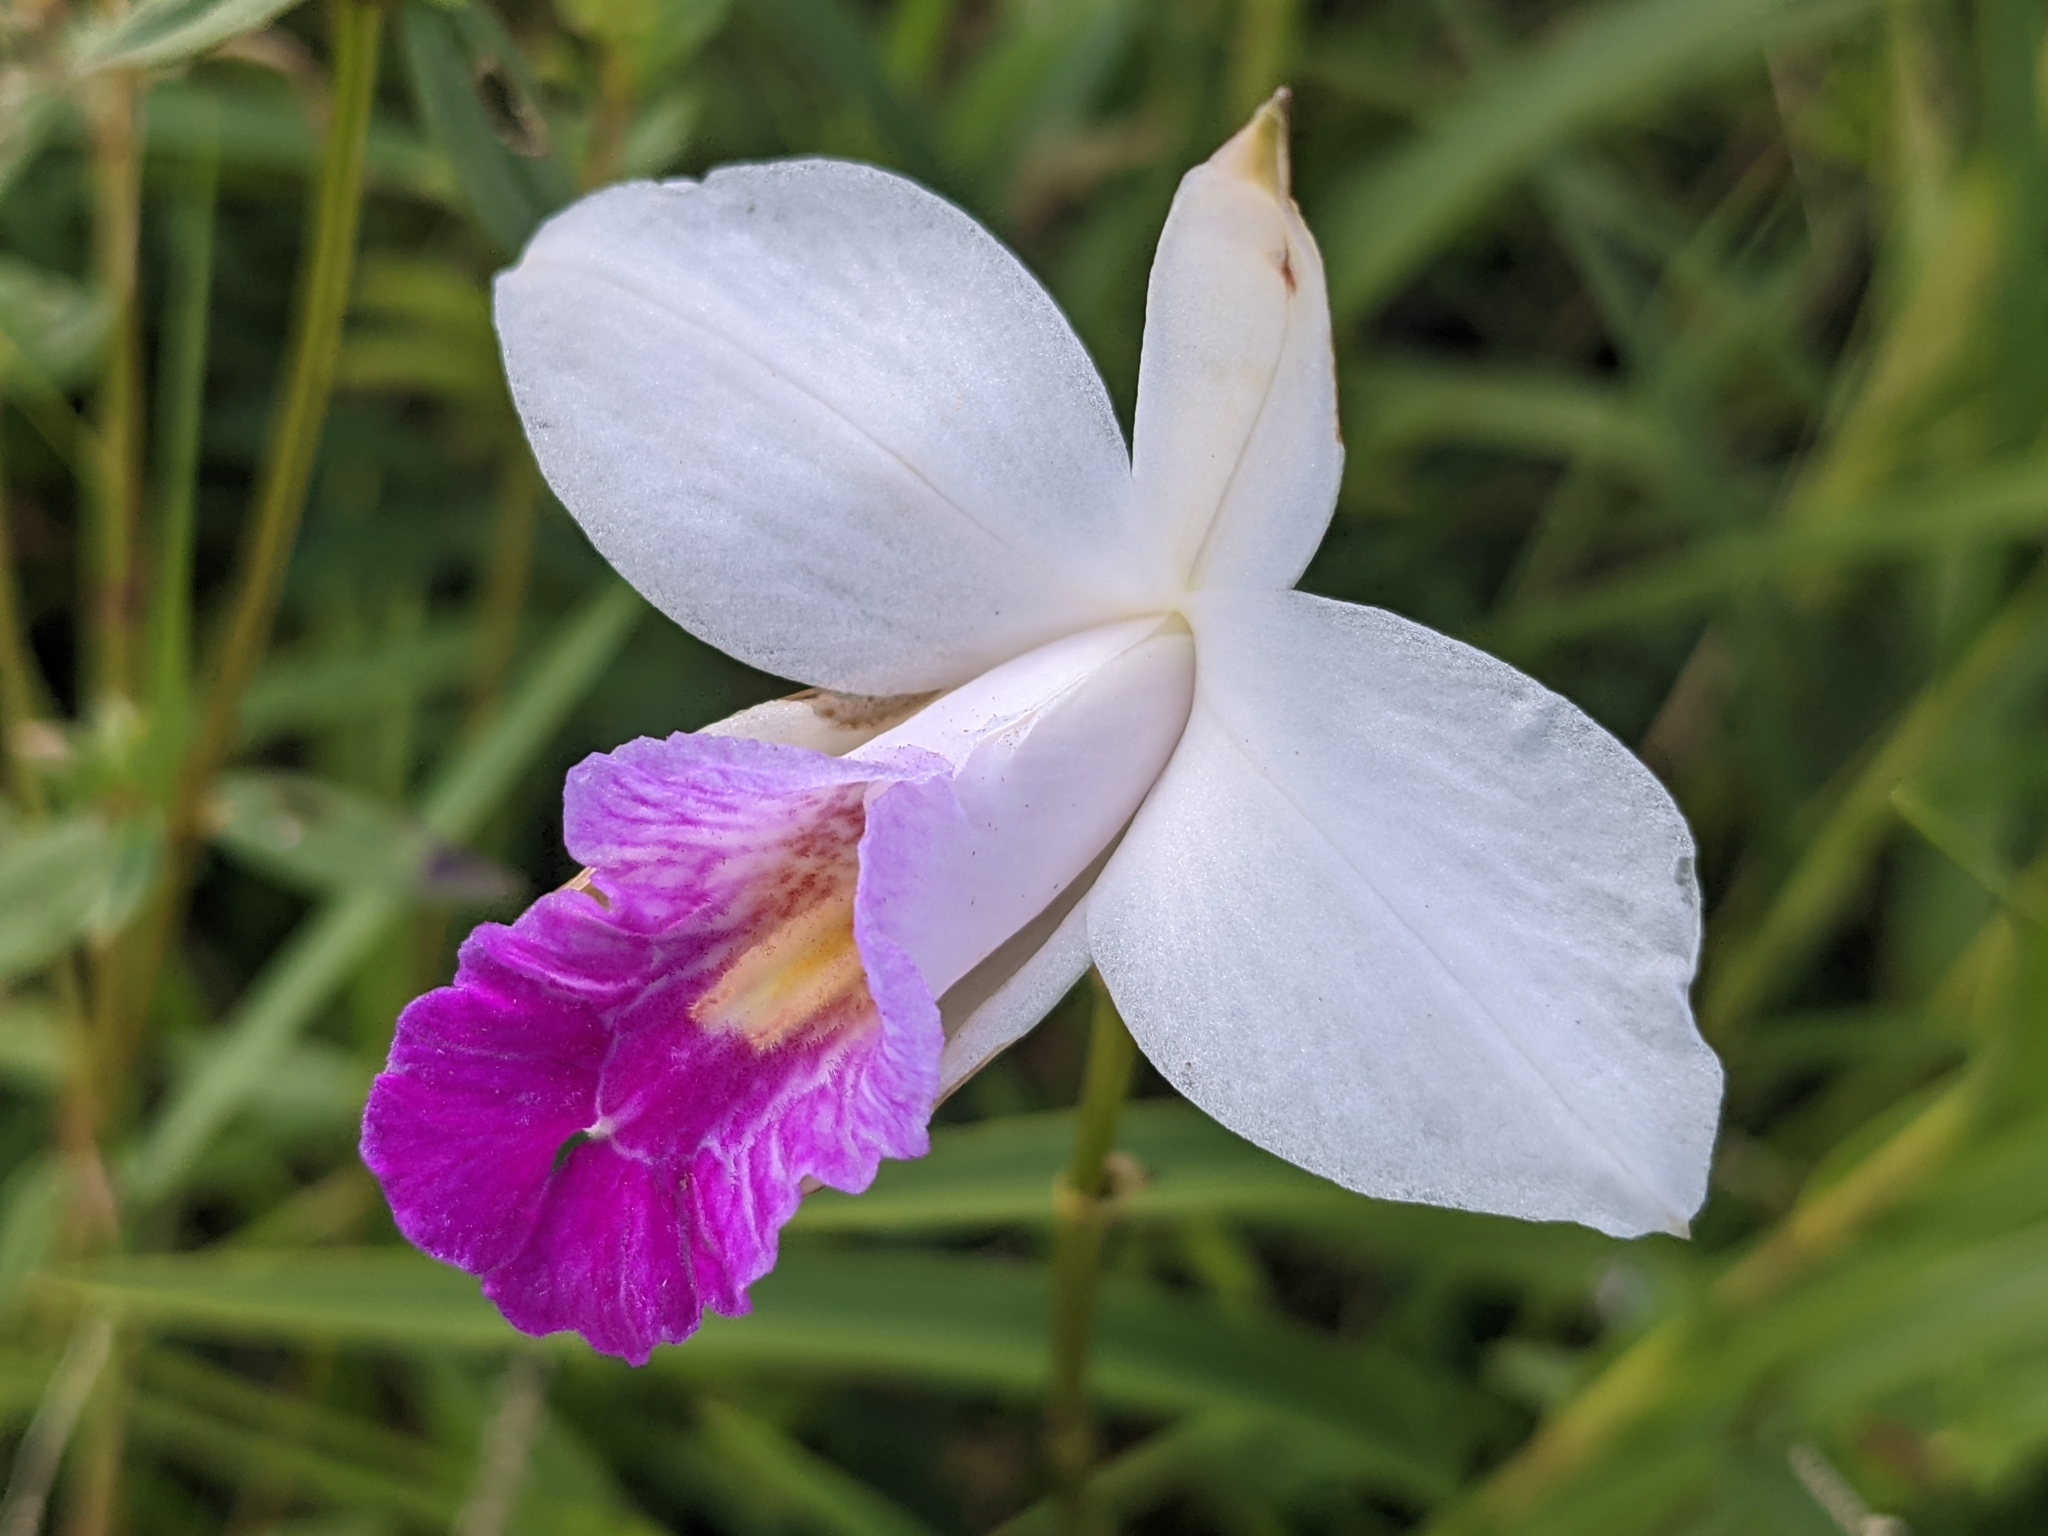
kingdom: Plantae
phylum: Tracheophyta
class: Liliopsida
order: Asparagales
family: Orchidaceae
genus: Arundina
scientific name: Arundina graminifolia
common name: Bamboo orchid
